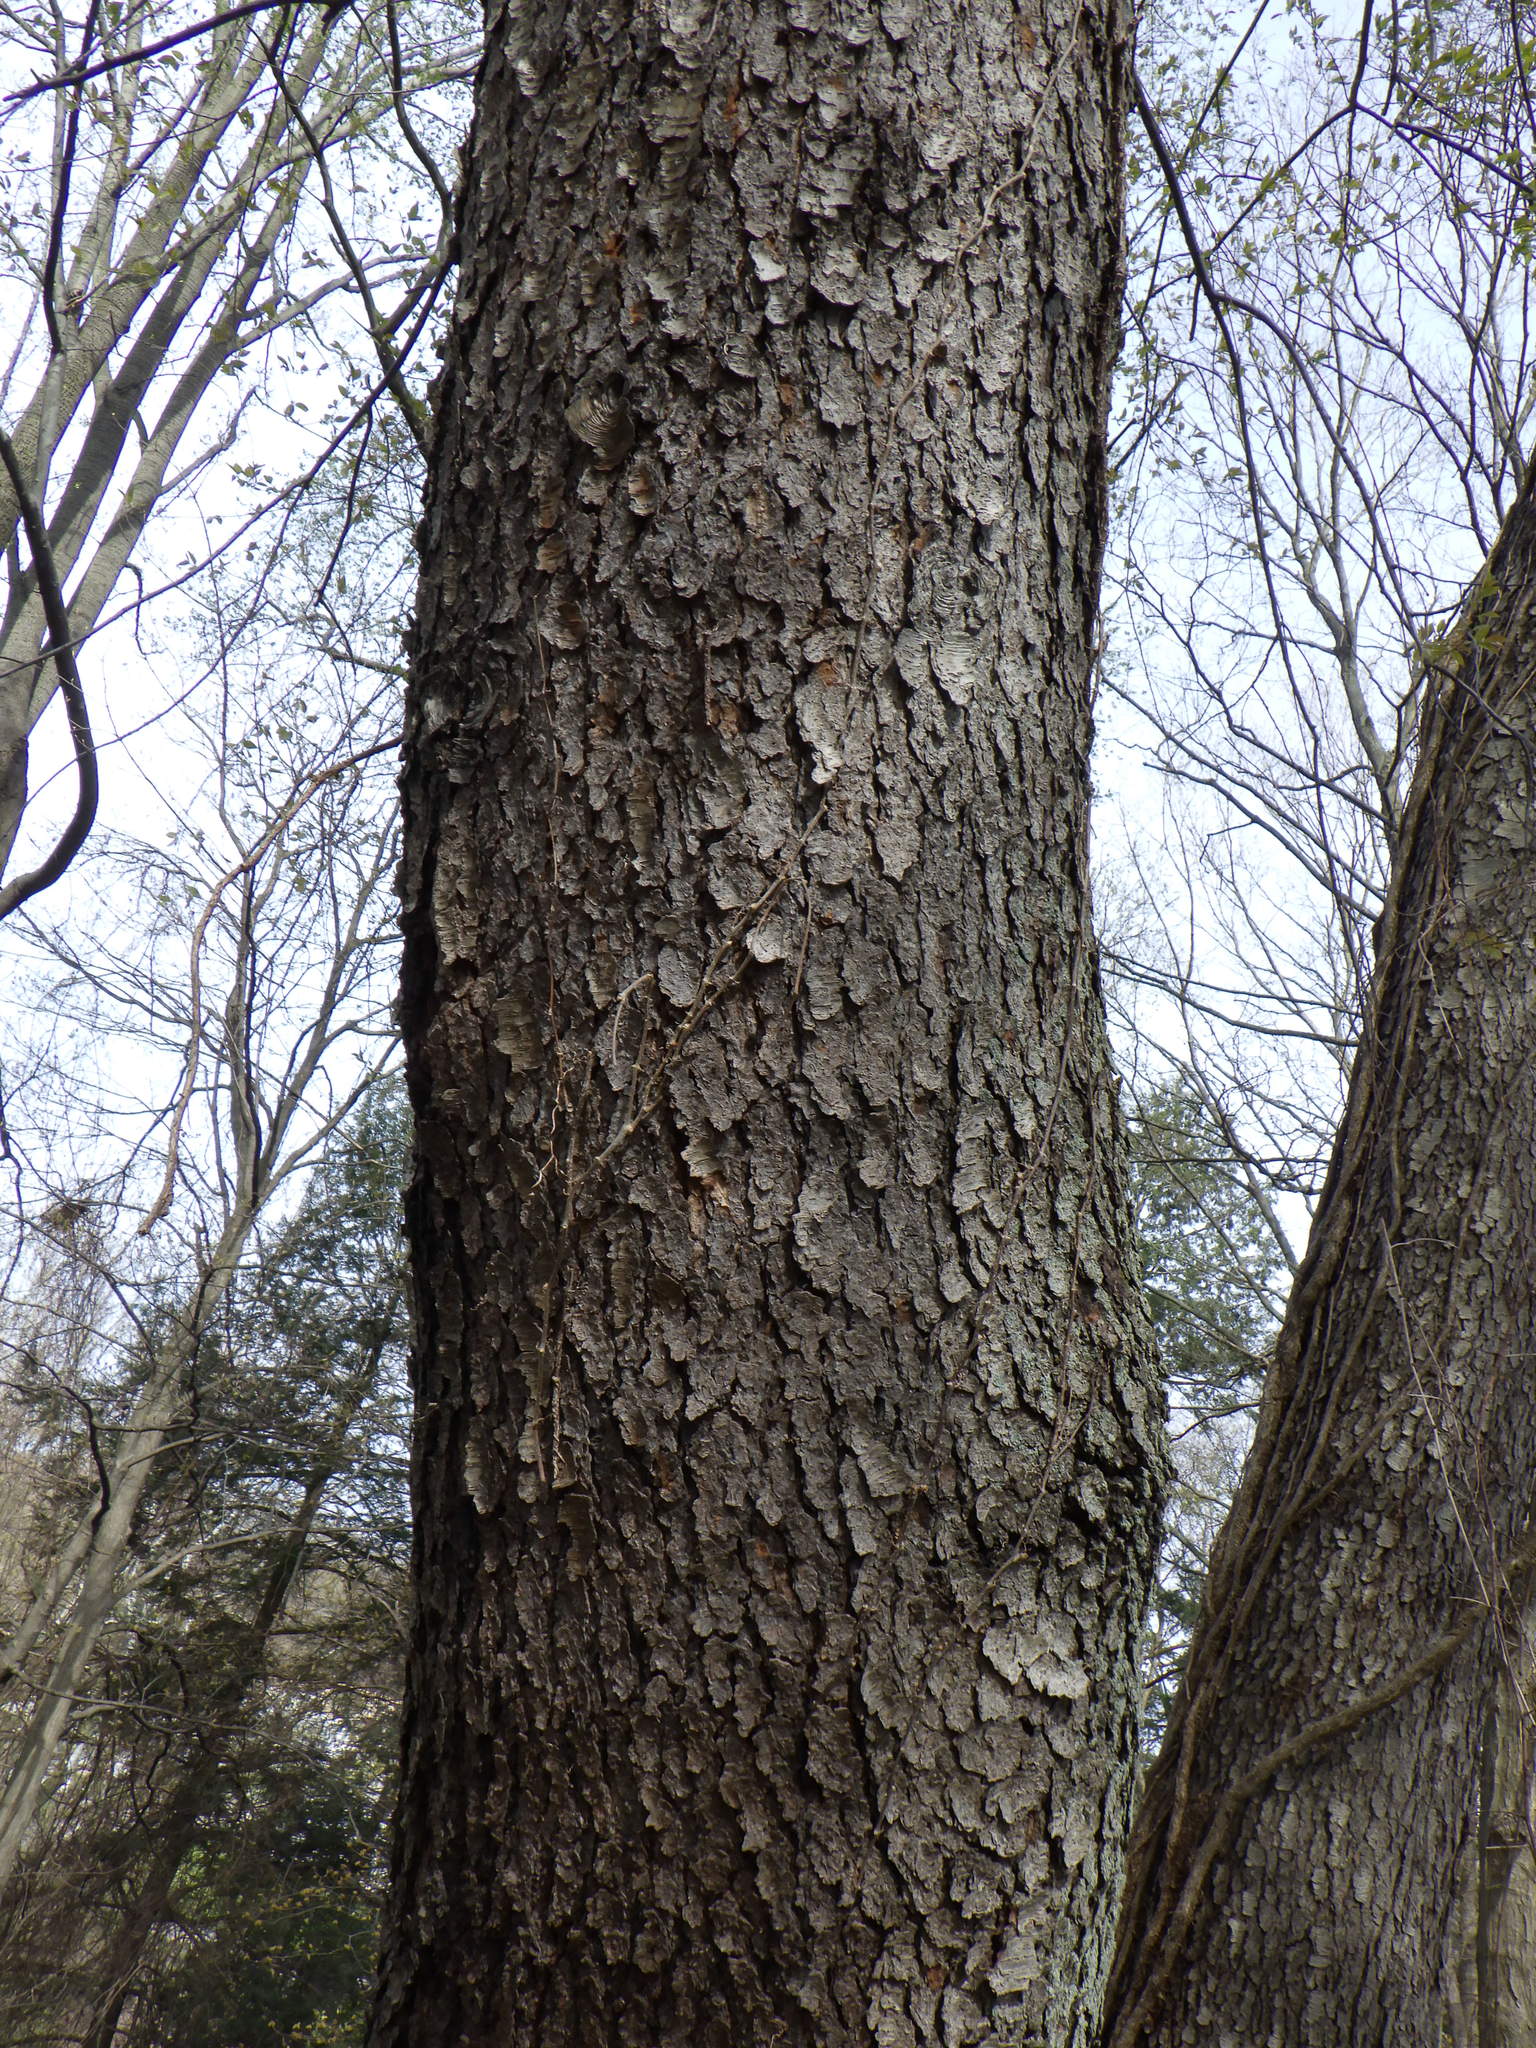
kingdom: Plantae
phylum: Tracheophyta
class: Magnoliopsida
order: Rosales
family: Rosaceae
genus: Prunus
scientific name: Prunus serotina
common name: Black cherry
